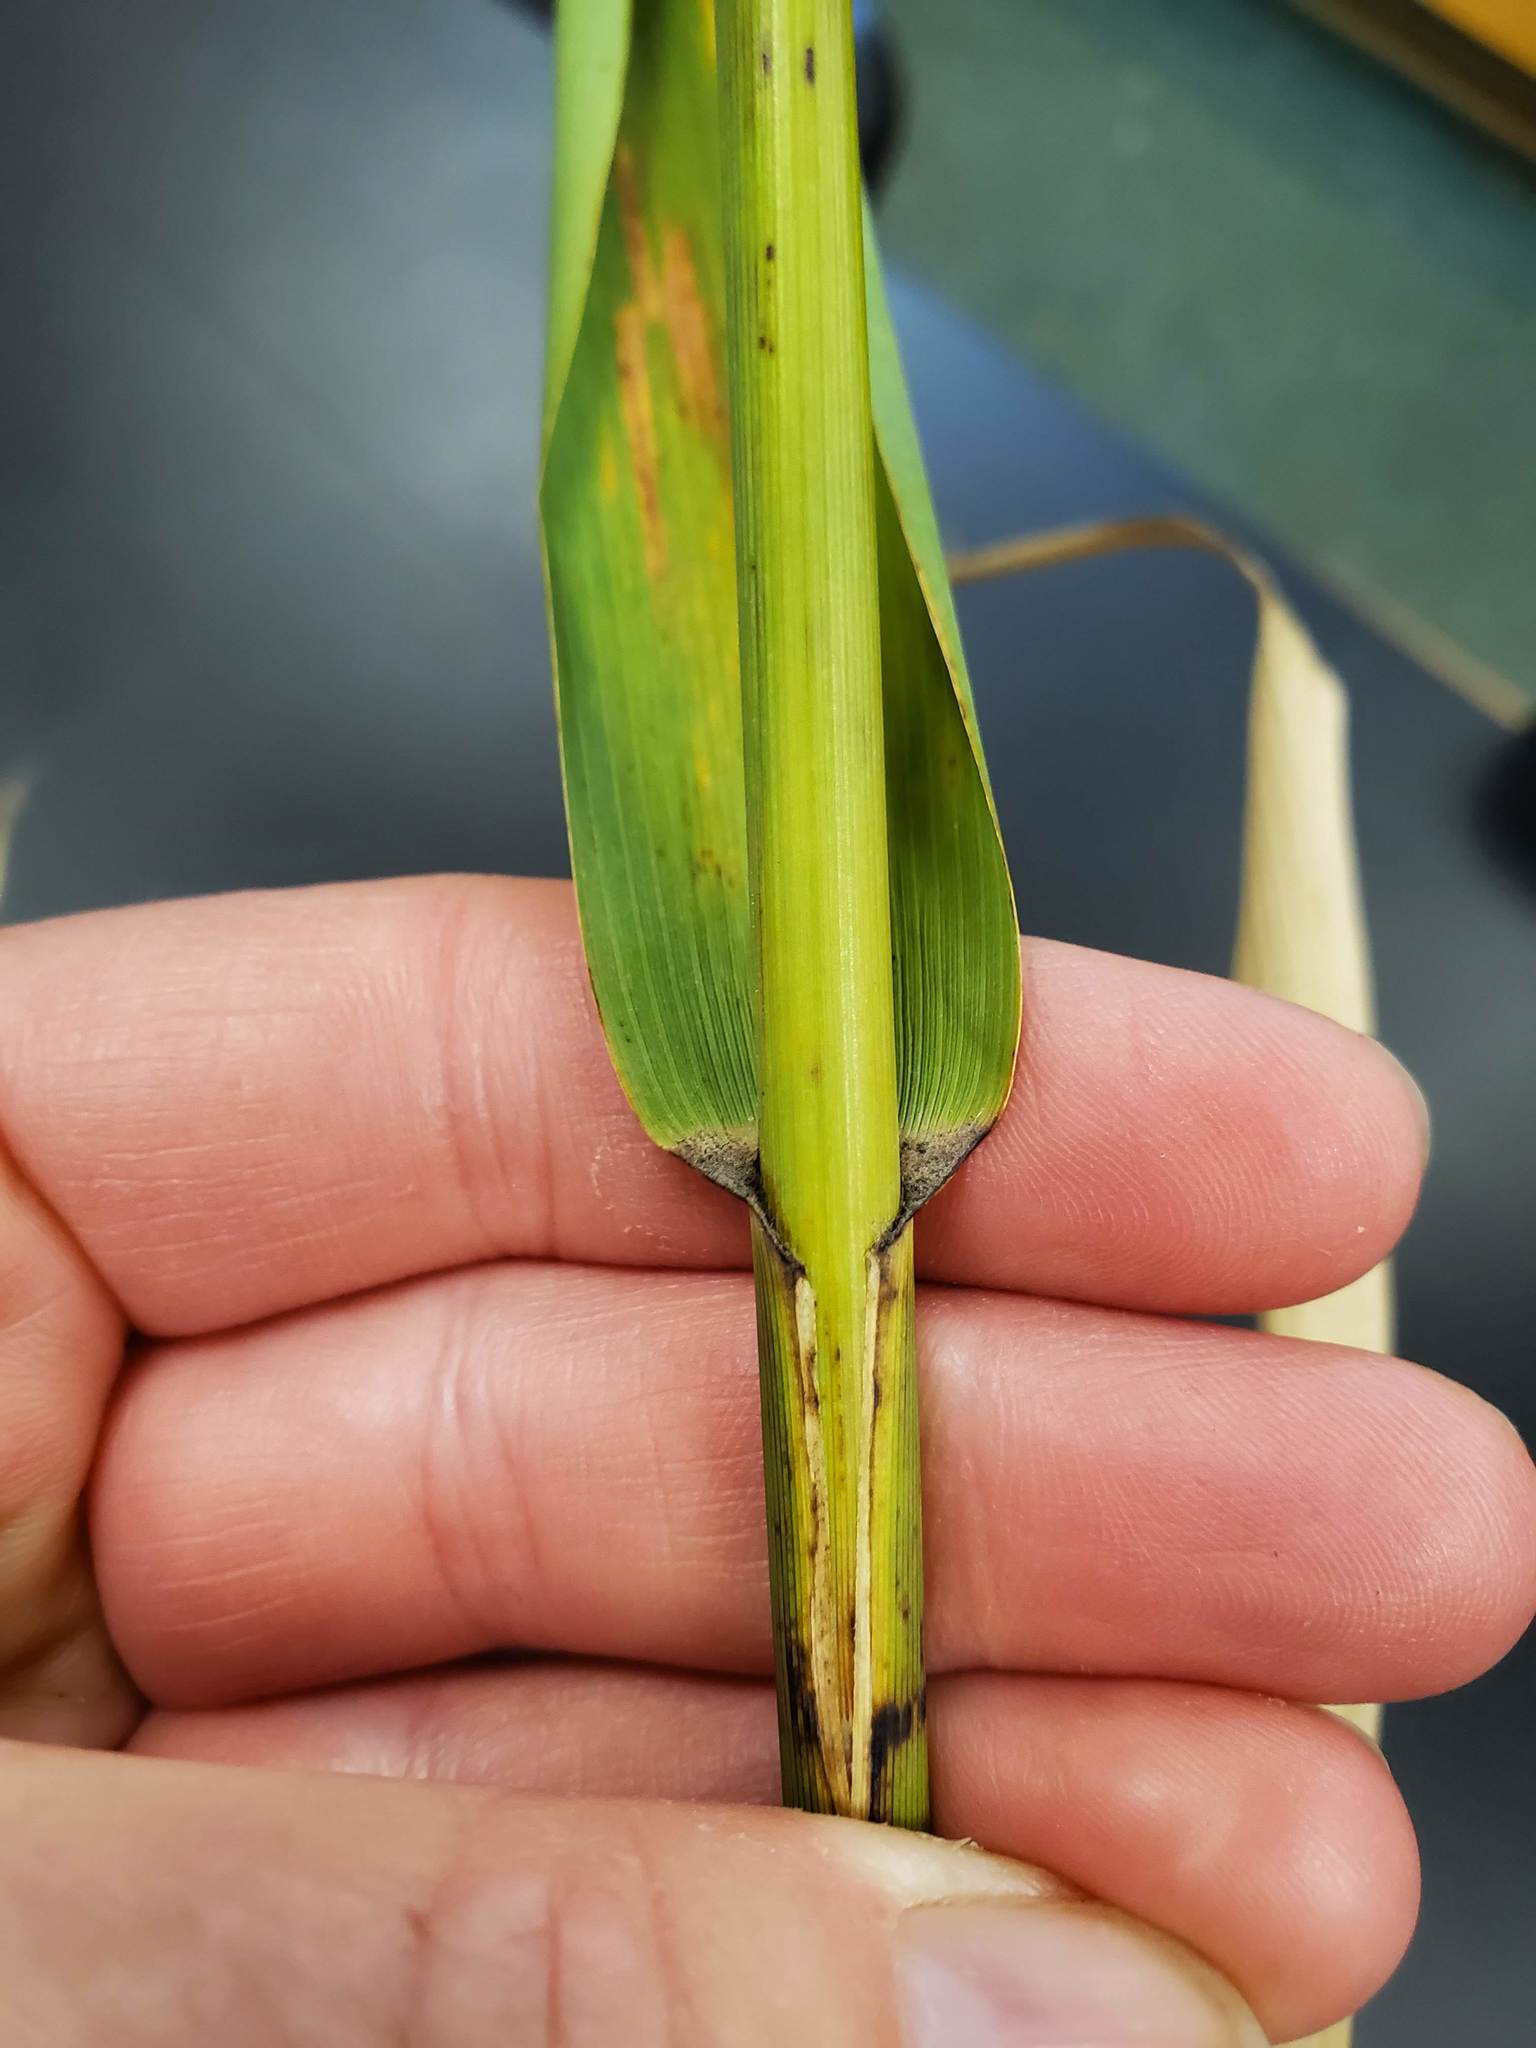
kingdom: Plantae
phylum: Tracheophyta
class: Liliopsida
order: Poales
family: Poaceae
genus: Phragmites
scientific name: Phragmites australis
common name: Common reed
